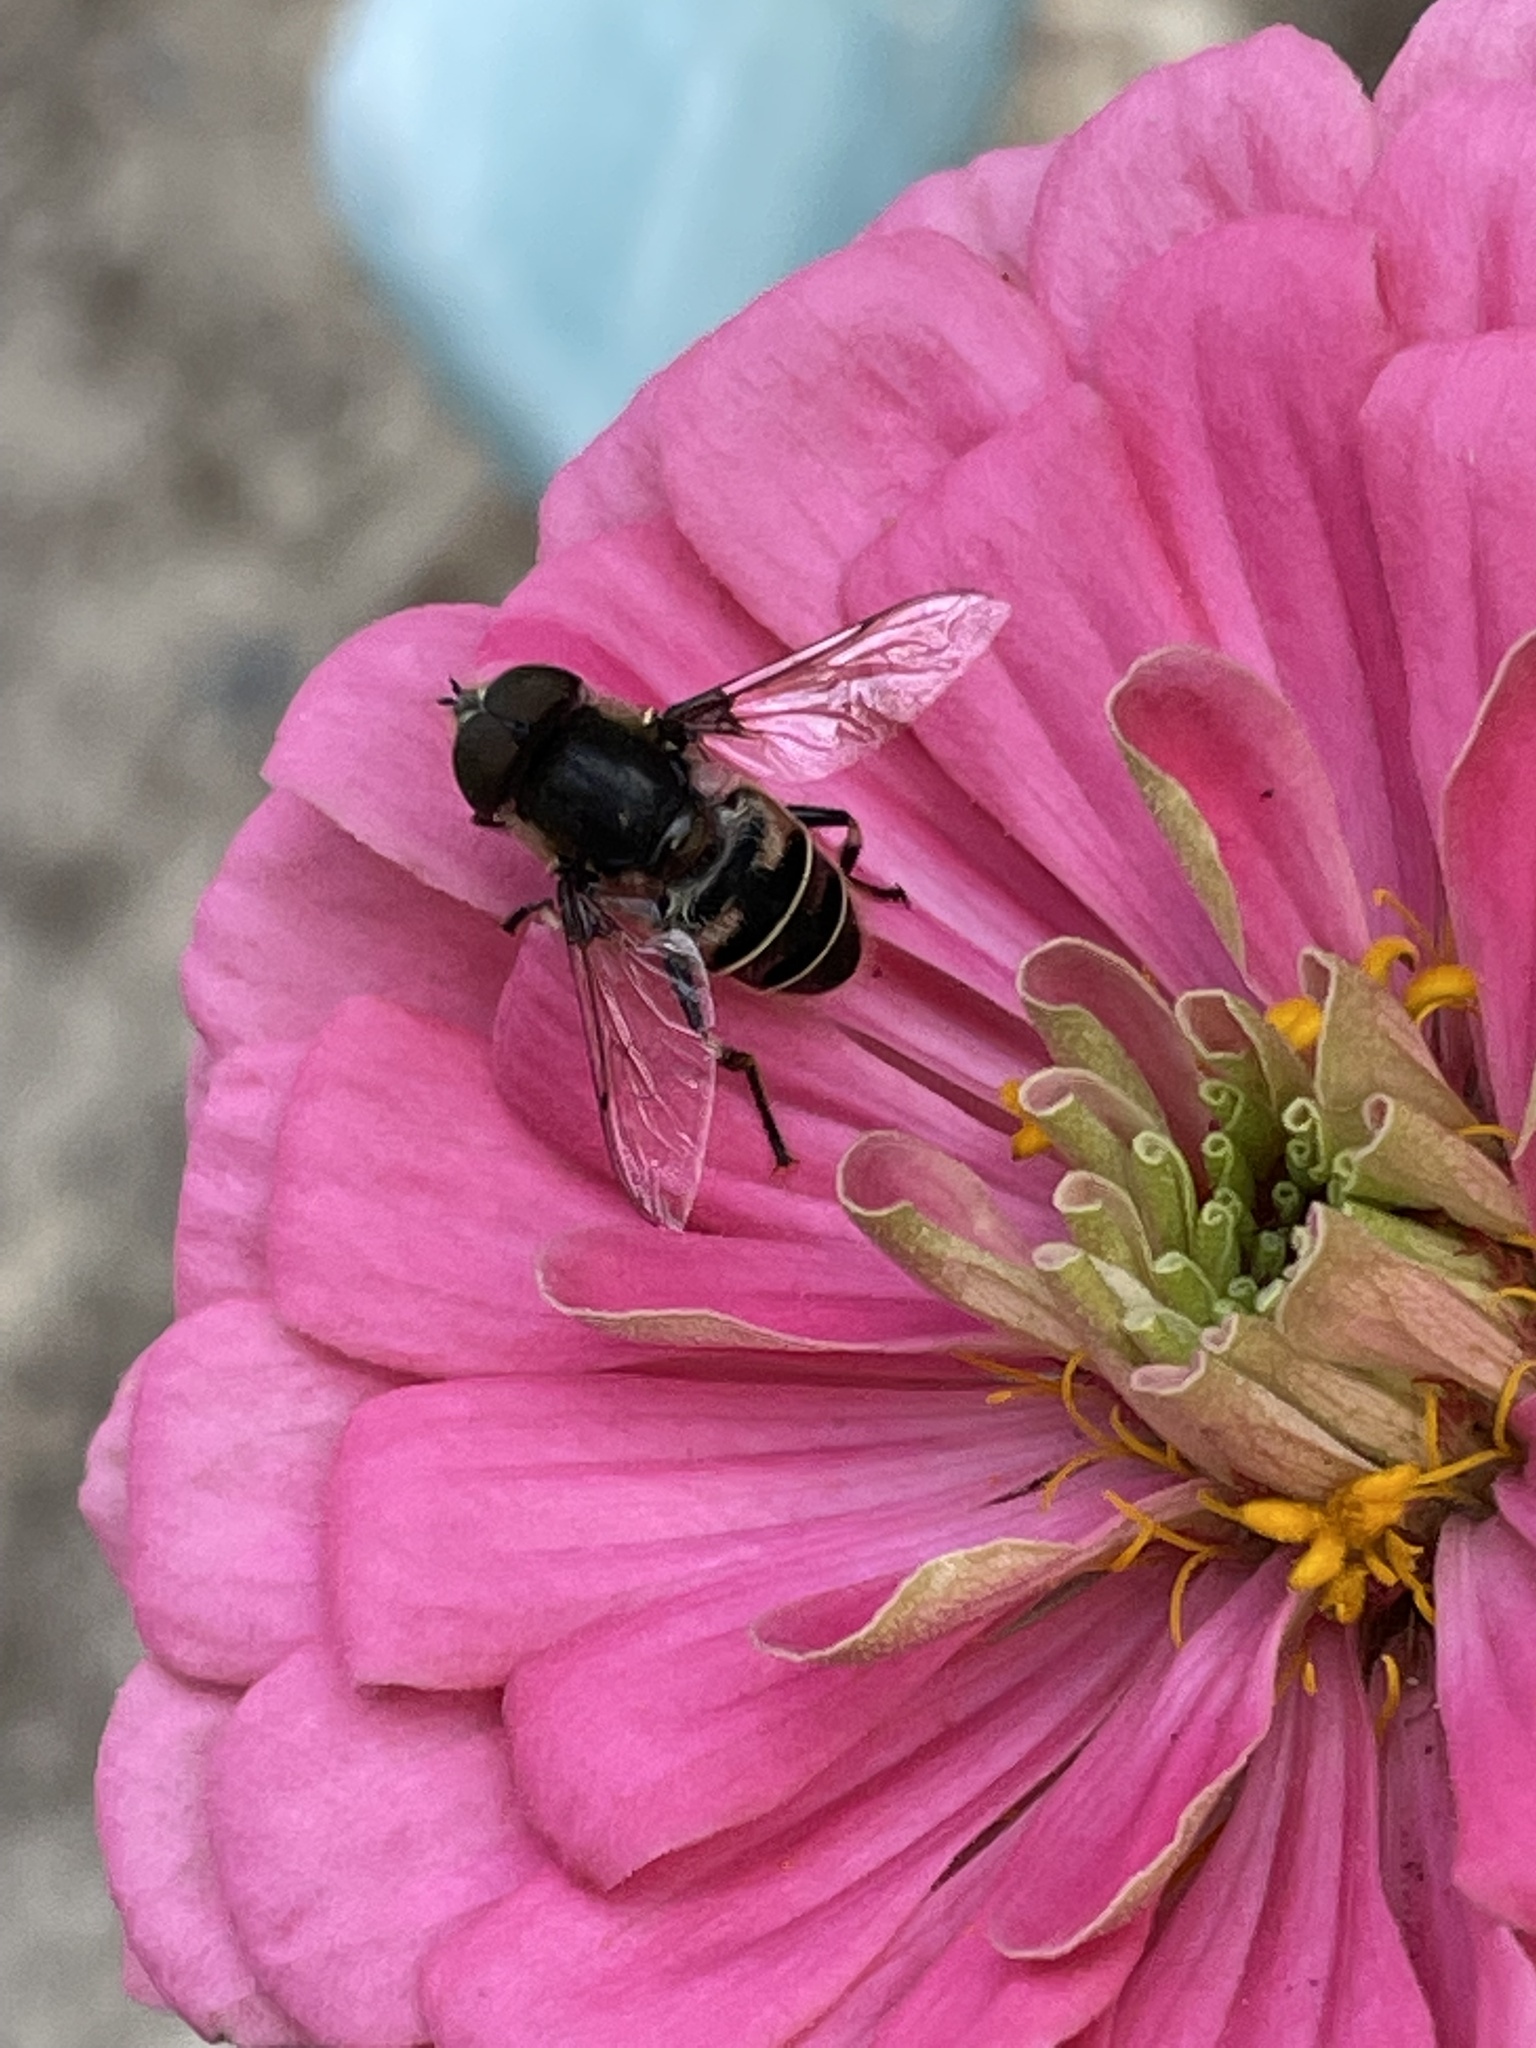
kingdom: Animalia
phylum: Arthropoda
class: Insecta
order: Diptera
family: Syrphidae
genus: Eristalis
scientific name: Eristalis dimidiata
